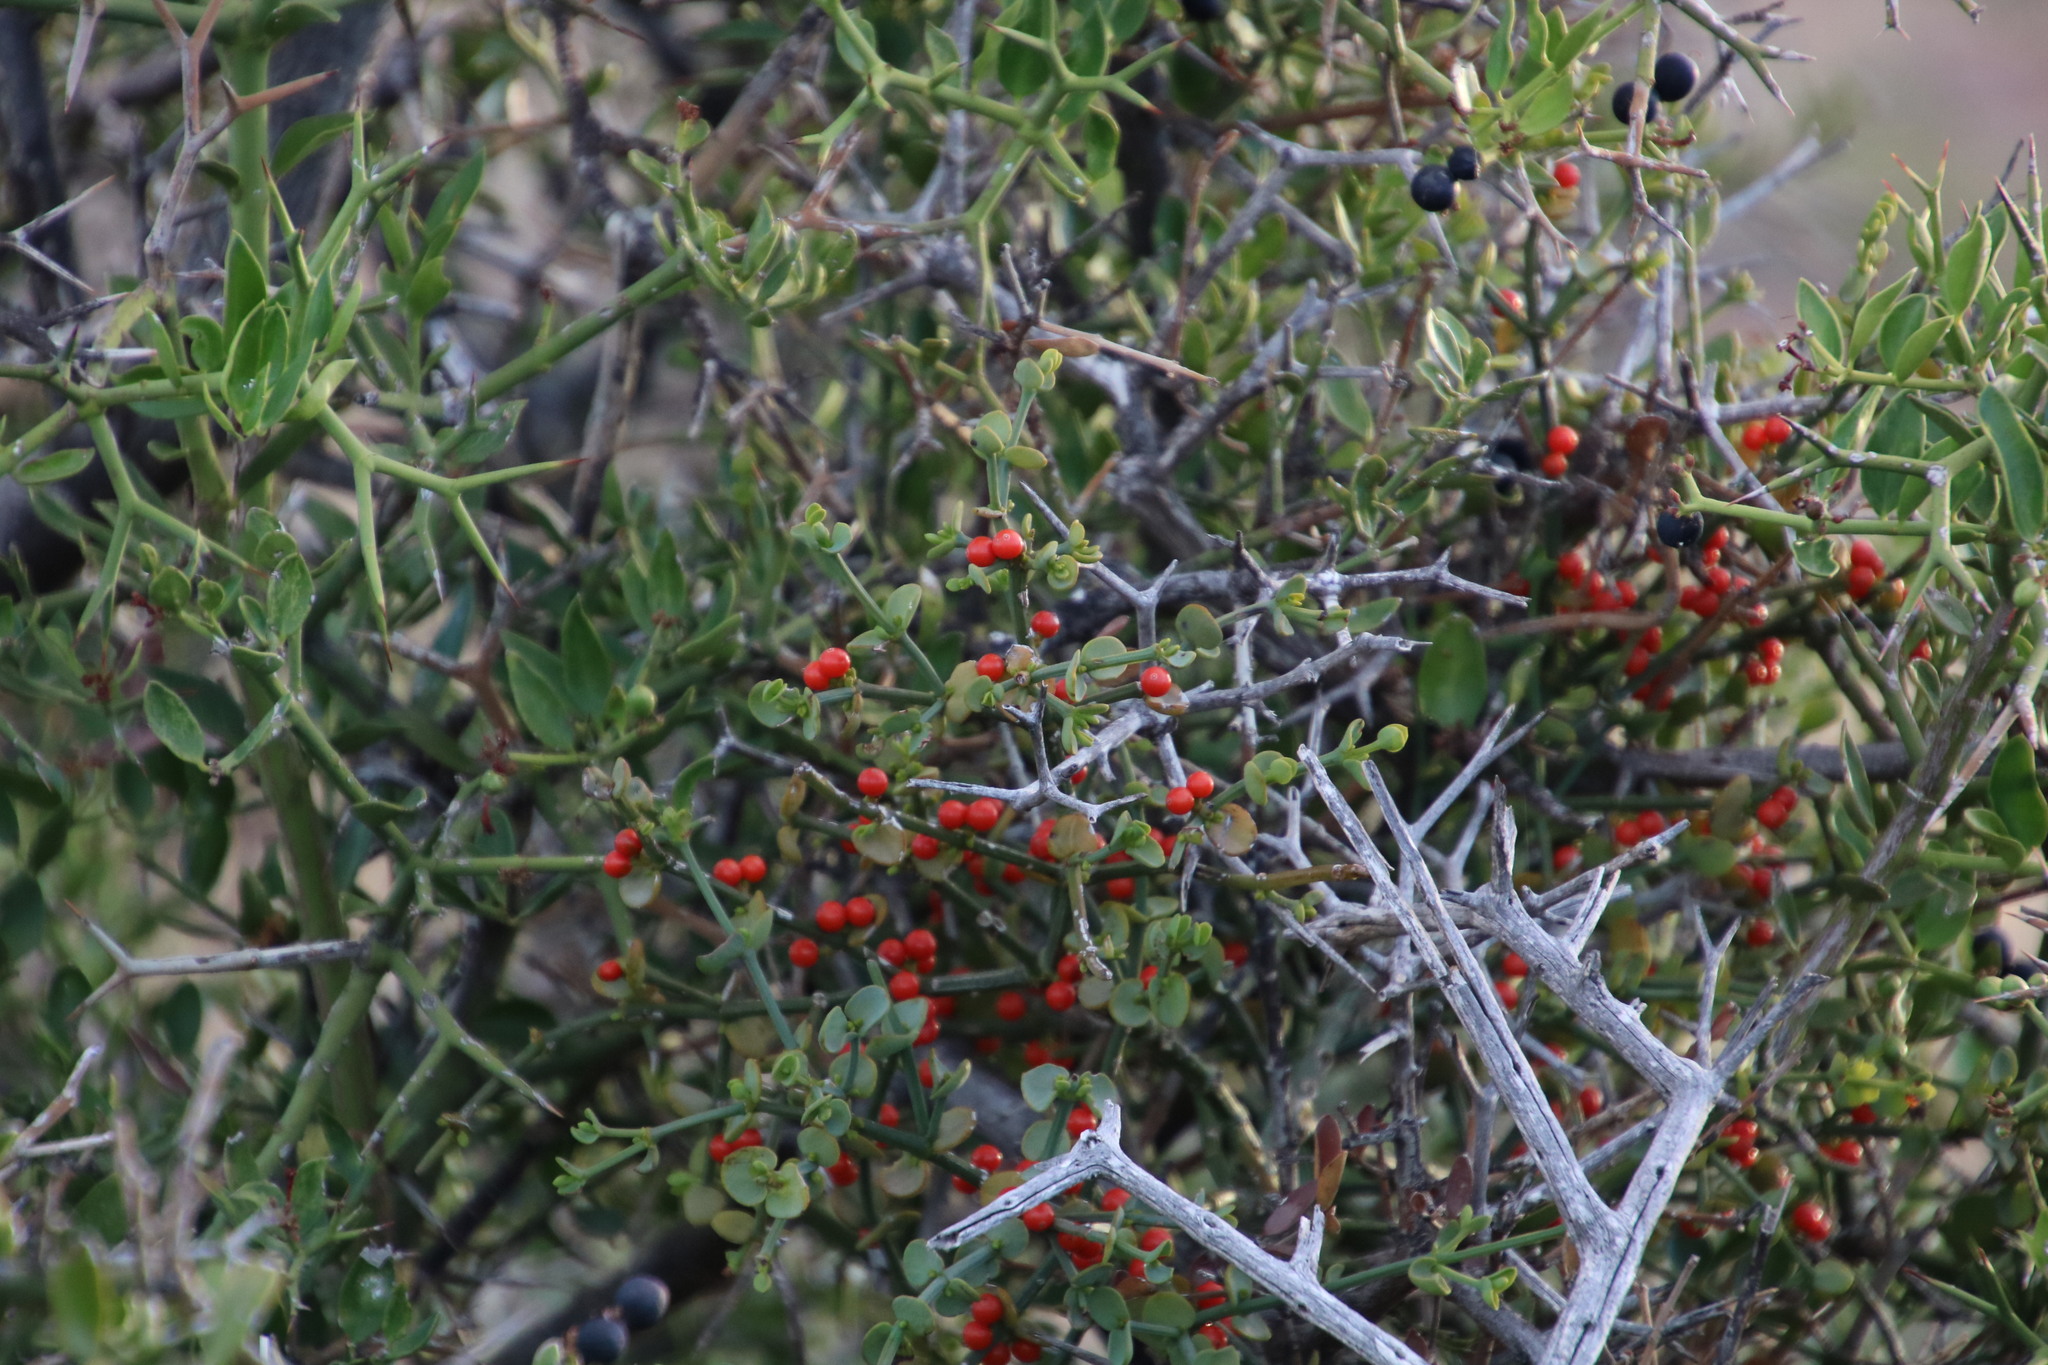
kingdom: Plantae
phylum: Tracheophyta
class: Magnoliopsida
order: Gentianales
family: Apocynaceae
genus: Carissa
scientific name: Carissa haematocarpa
